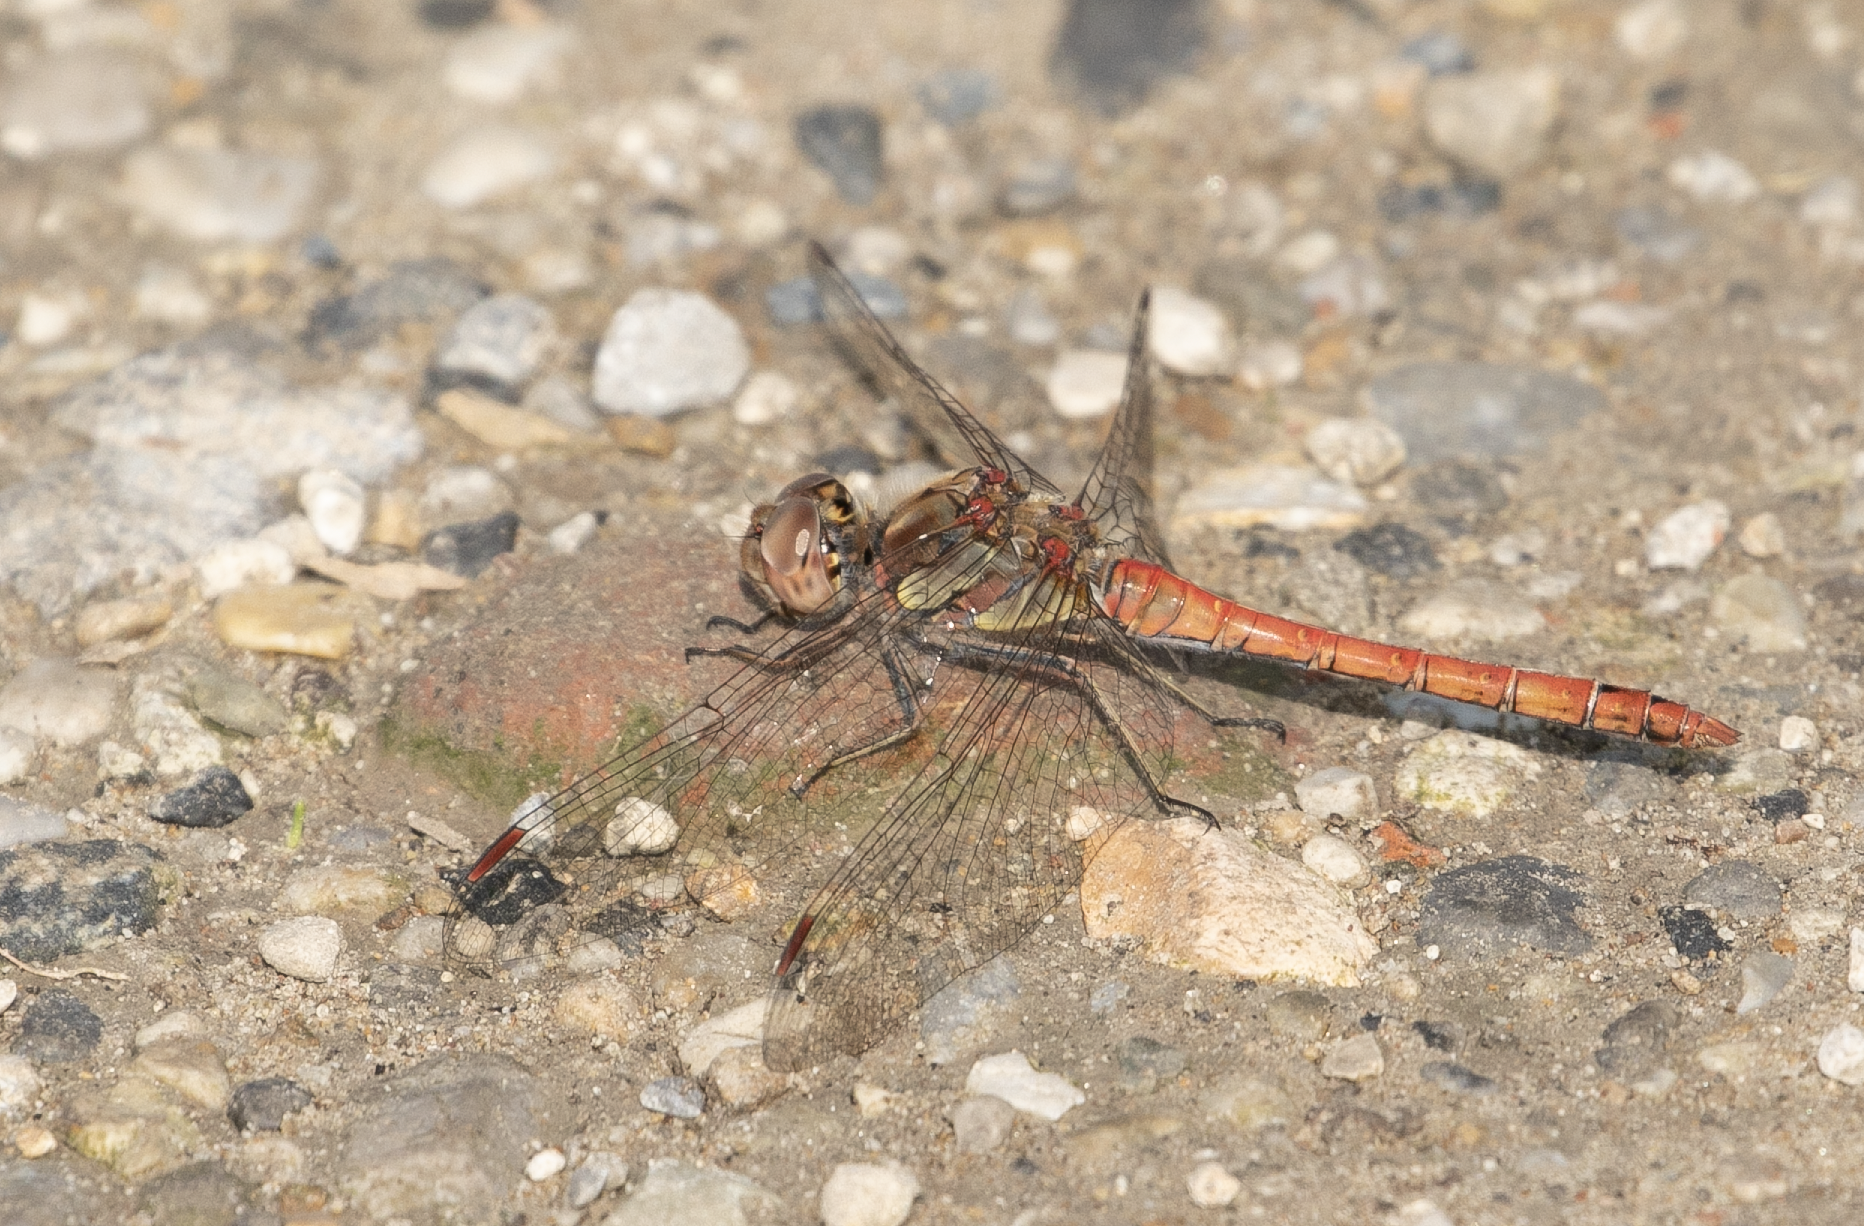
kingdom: Animalia
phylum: Arthropoda
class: Insecta
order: Odonata
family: Libellulidae
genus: Sympetrum
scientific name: Sympetrum striolatum
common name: Common darter
